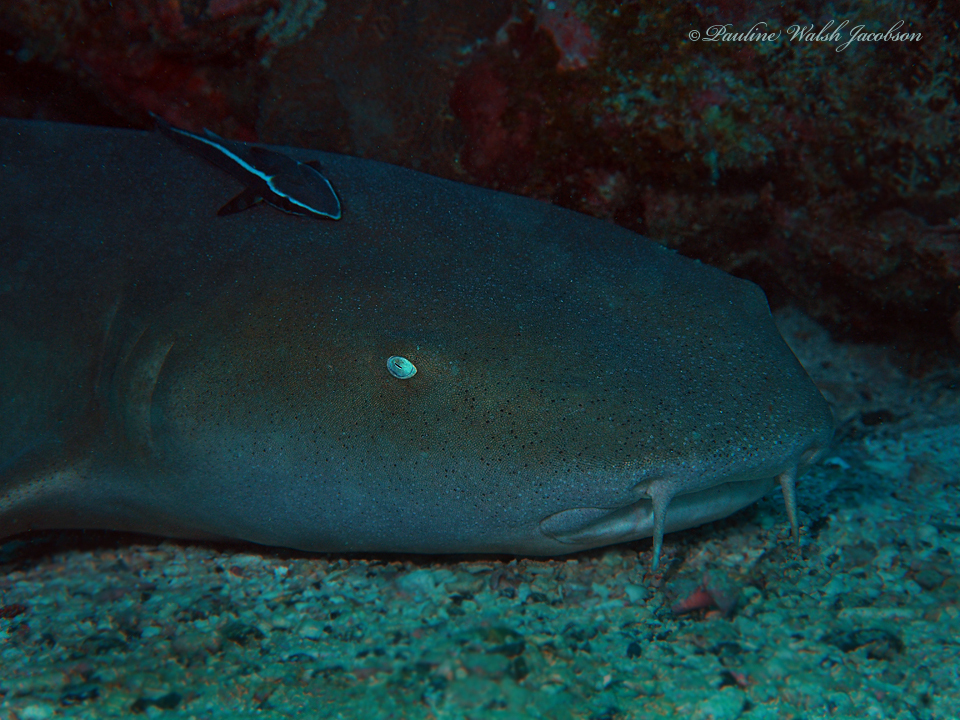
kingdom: Animalia
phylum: Chordata
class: Elasmobranchii
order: Orectolobiformes
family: Ginglymostomatidae
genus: Ginglymostoma
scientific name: Ginglymostoma cirratum
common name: Nurse shark
